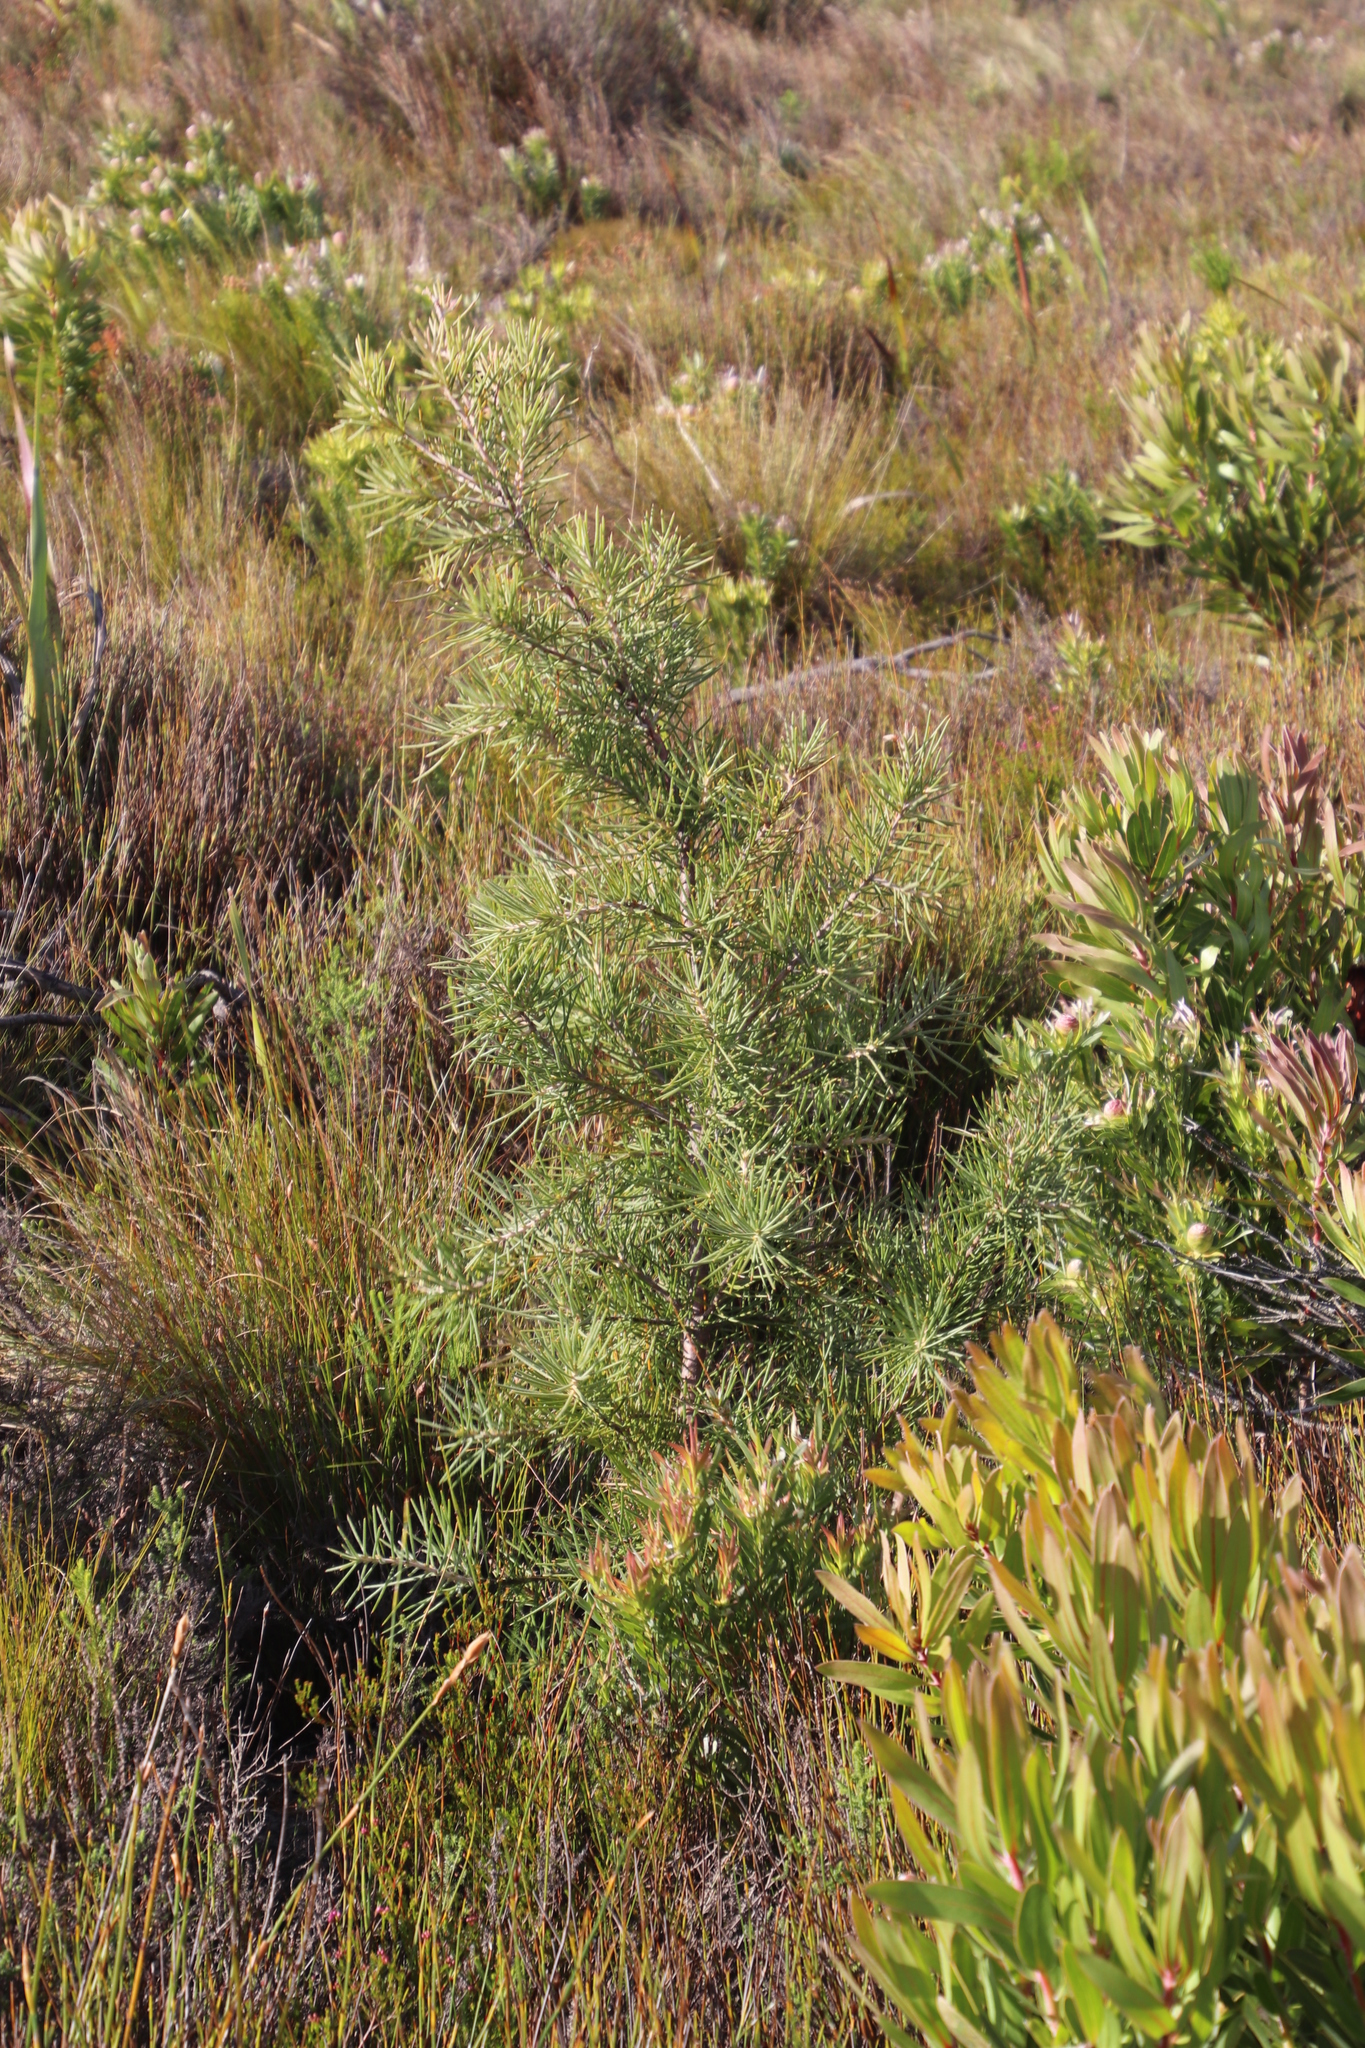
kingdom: Plantae
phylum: Tracheophyta
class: Magnoliopsida
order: Proteales
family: Proteaceae
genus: Hakea
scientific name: Hakea gibbosa
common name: Rock hakea
